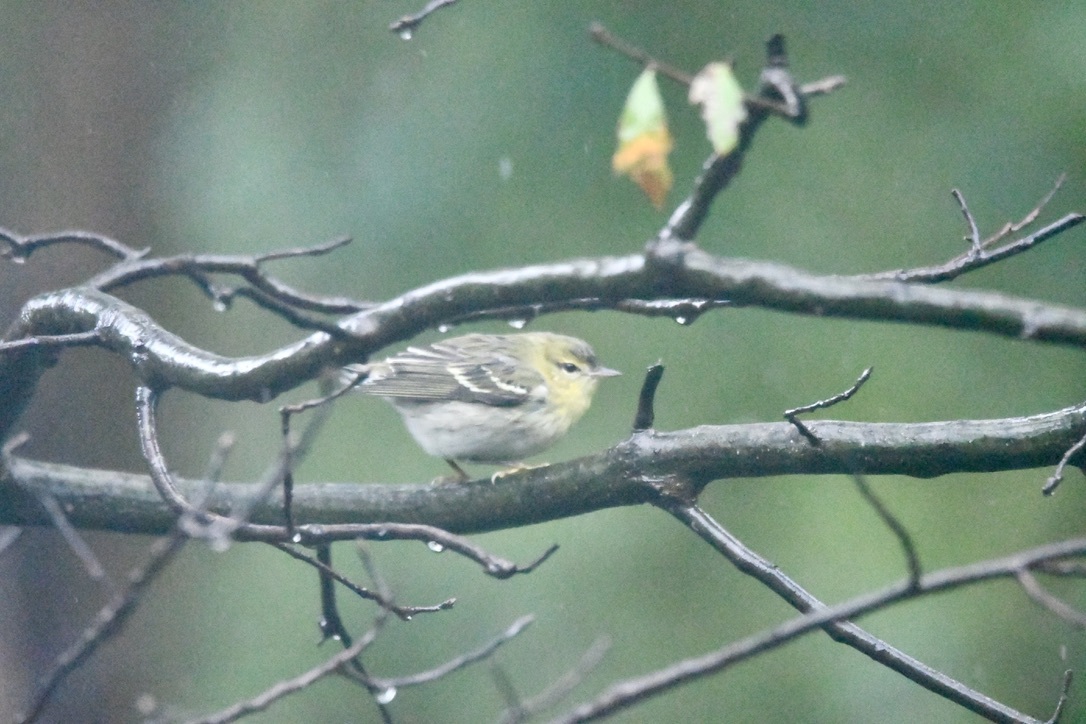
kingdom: Animalia
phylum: Chordata
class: Aves
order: Passeriformes
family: Parulidae
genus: Setophaga
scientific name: Setophaga striata
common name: Blackpoll warbler
